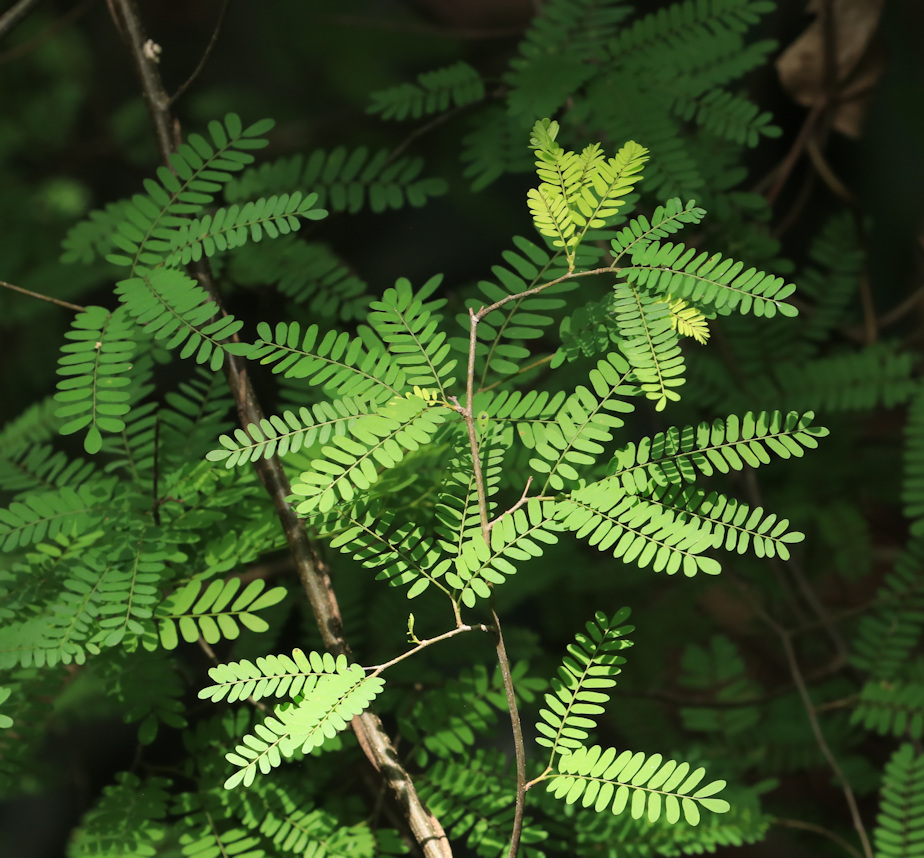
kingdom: Plantae
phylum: Tracheophyta
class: Magnoliopsida
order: Fabales
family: Fabaceae
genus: Dalbergia
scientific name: Dalbergia armata
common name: Hluhluwe climber
